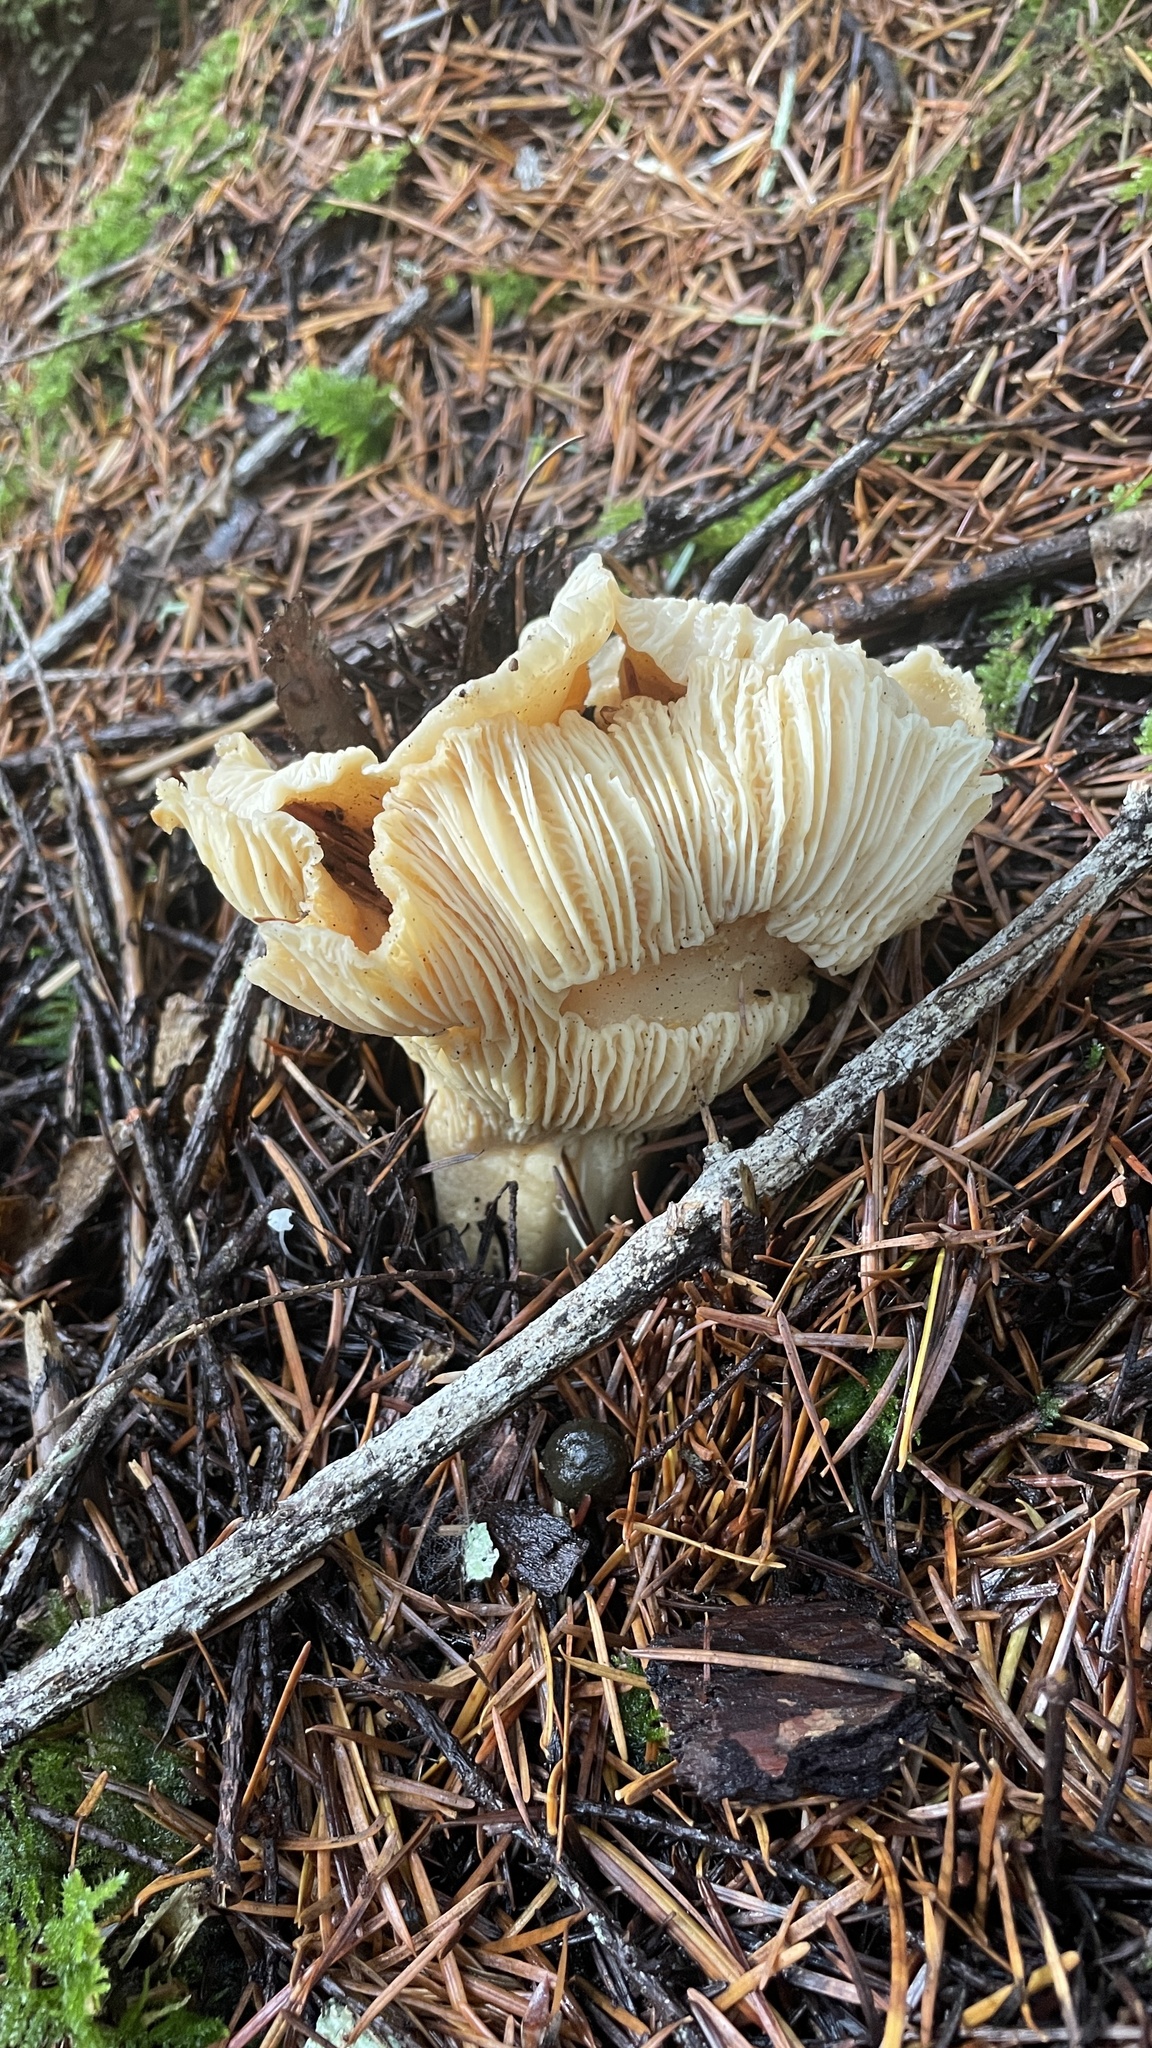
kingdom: Fungi
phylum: Basidiomycota
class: Agaricomycetes
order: Cantharellales
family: Hydnaceae
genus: Cantharellus
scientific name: Cantharellus subalbidus
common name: White chanterelle
